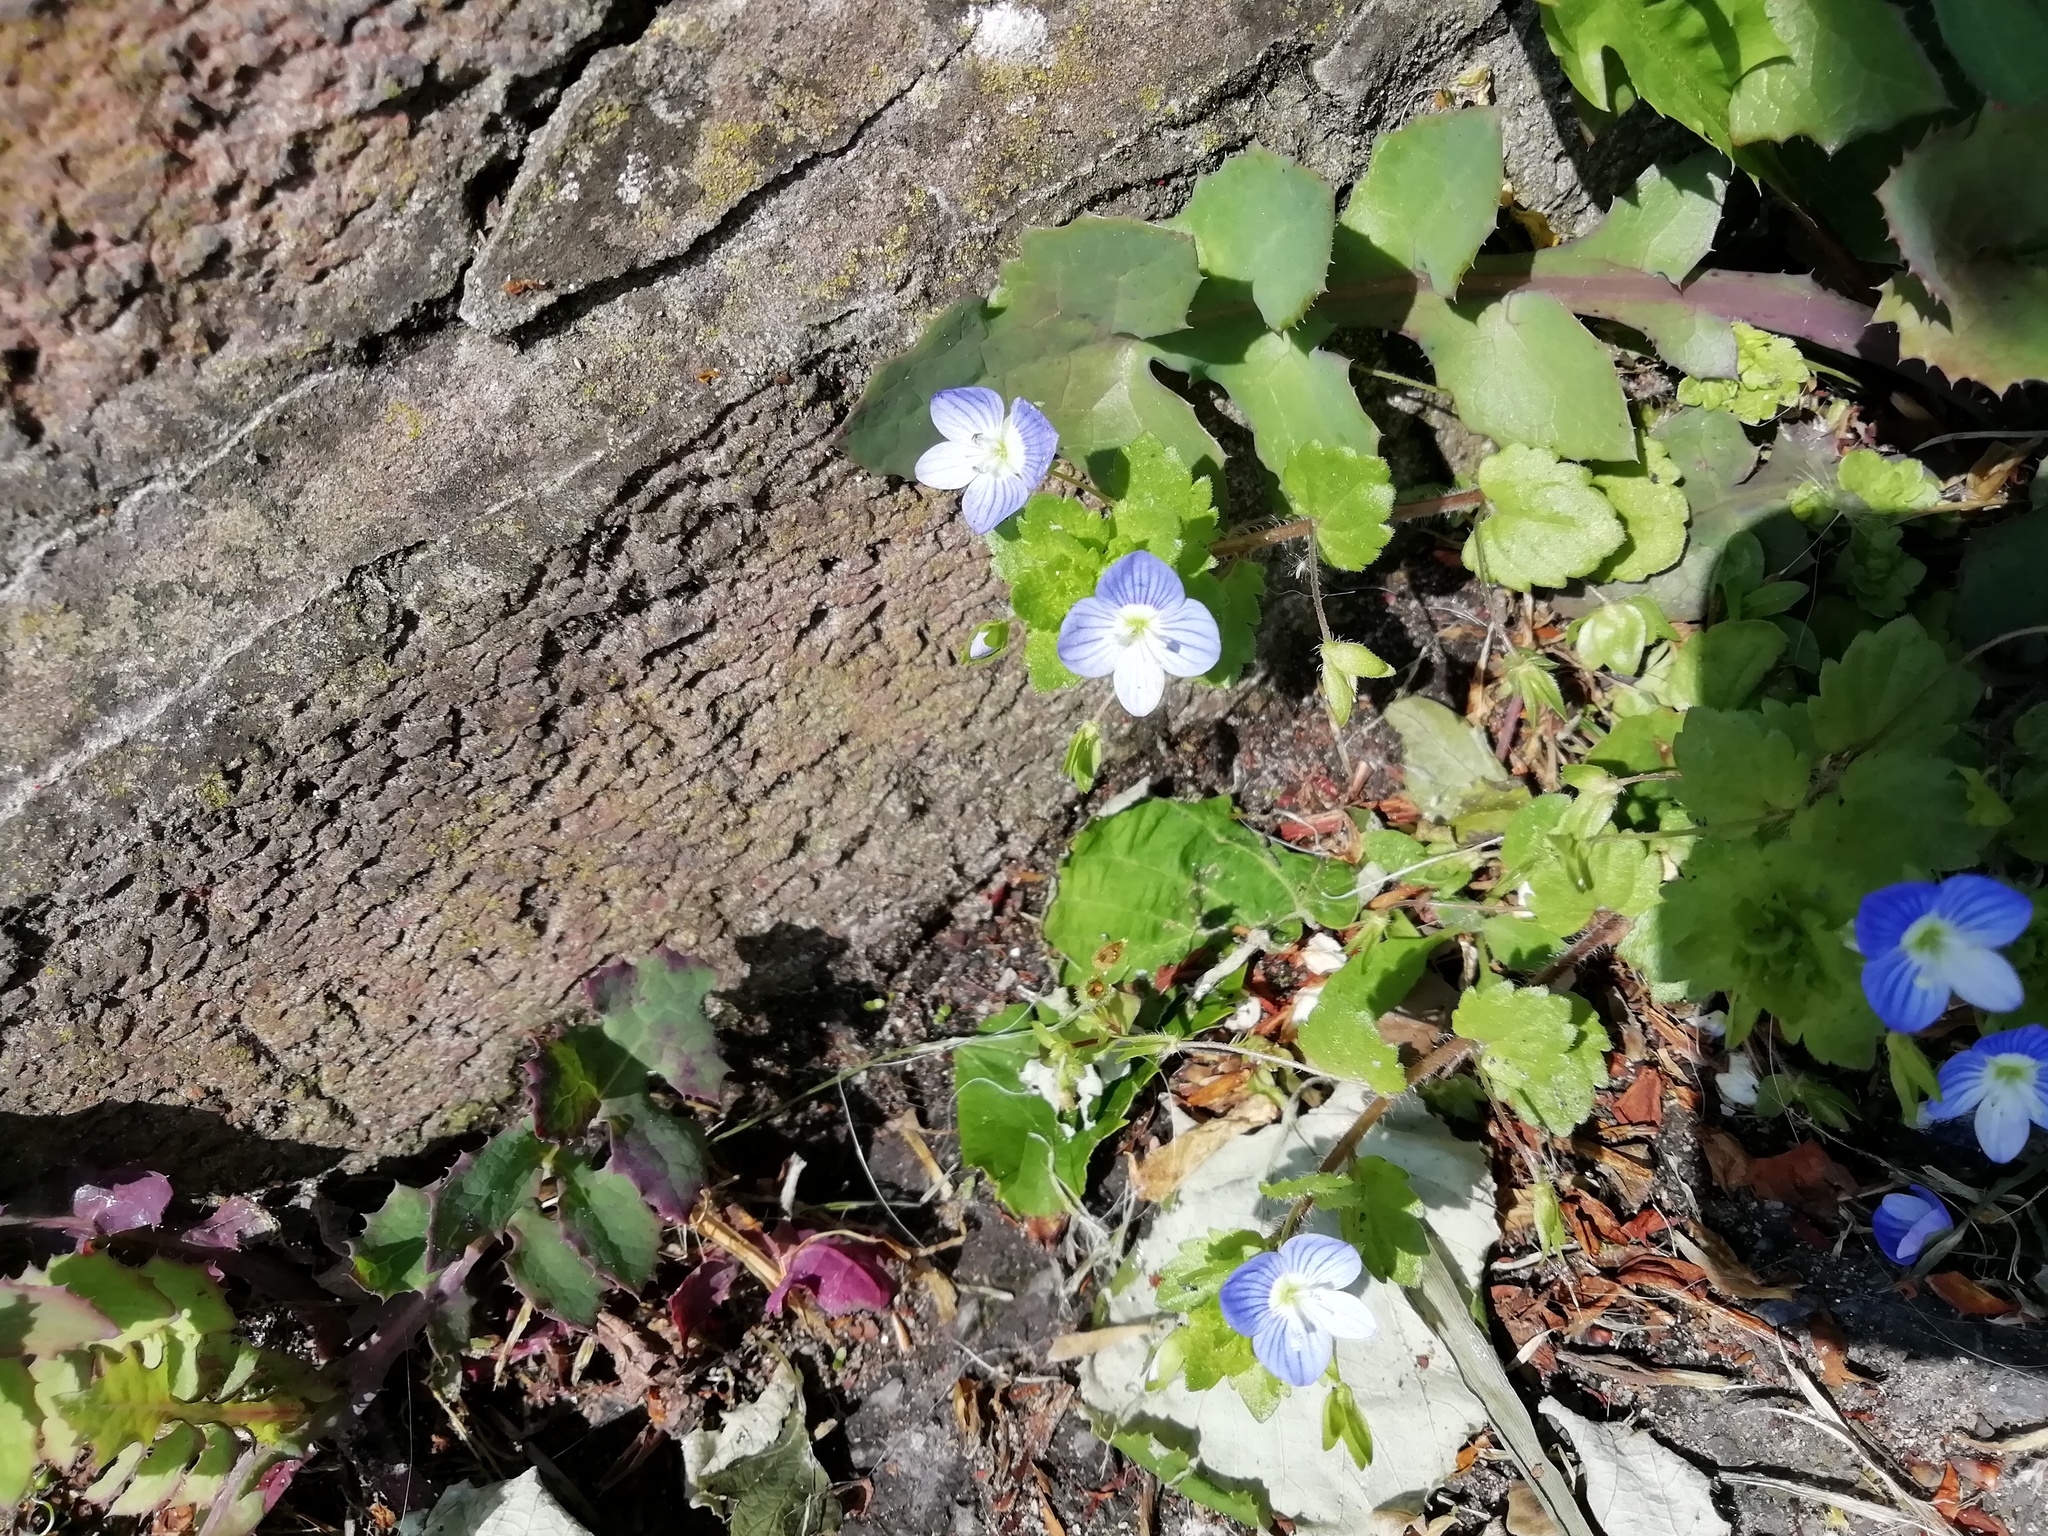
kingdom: Plantae
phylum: Tracheophyta
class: Magnoliopsida
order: Lamiales
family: Plantaginaceae
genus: Veronica
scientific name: Veronica persica
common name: Common field-speedwell
